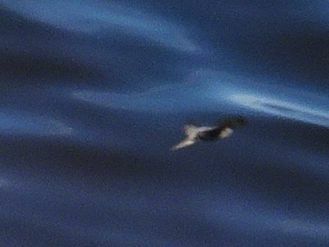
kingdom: Animalia
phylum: Chordata
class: Aves
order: Passeriformes
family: Hirundinidae
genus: Riparia
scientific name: Riparia paludicola
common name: Brown-throated martin
